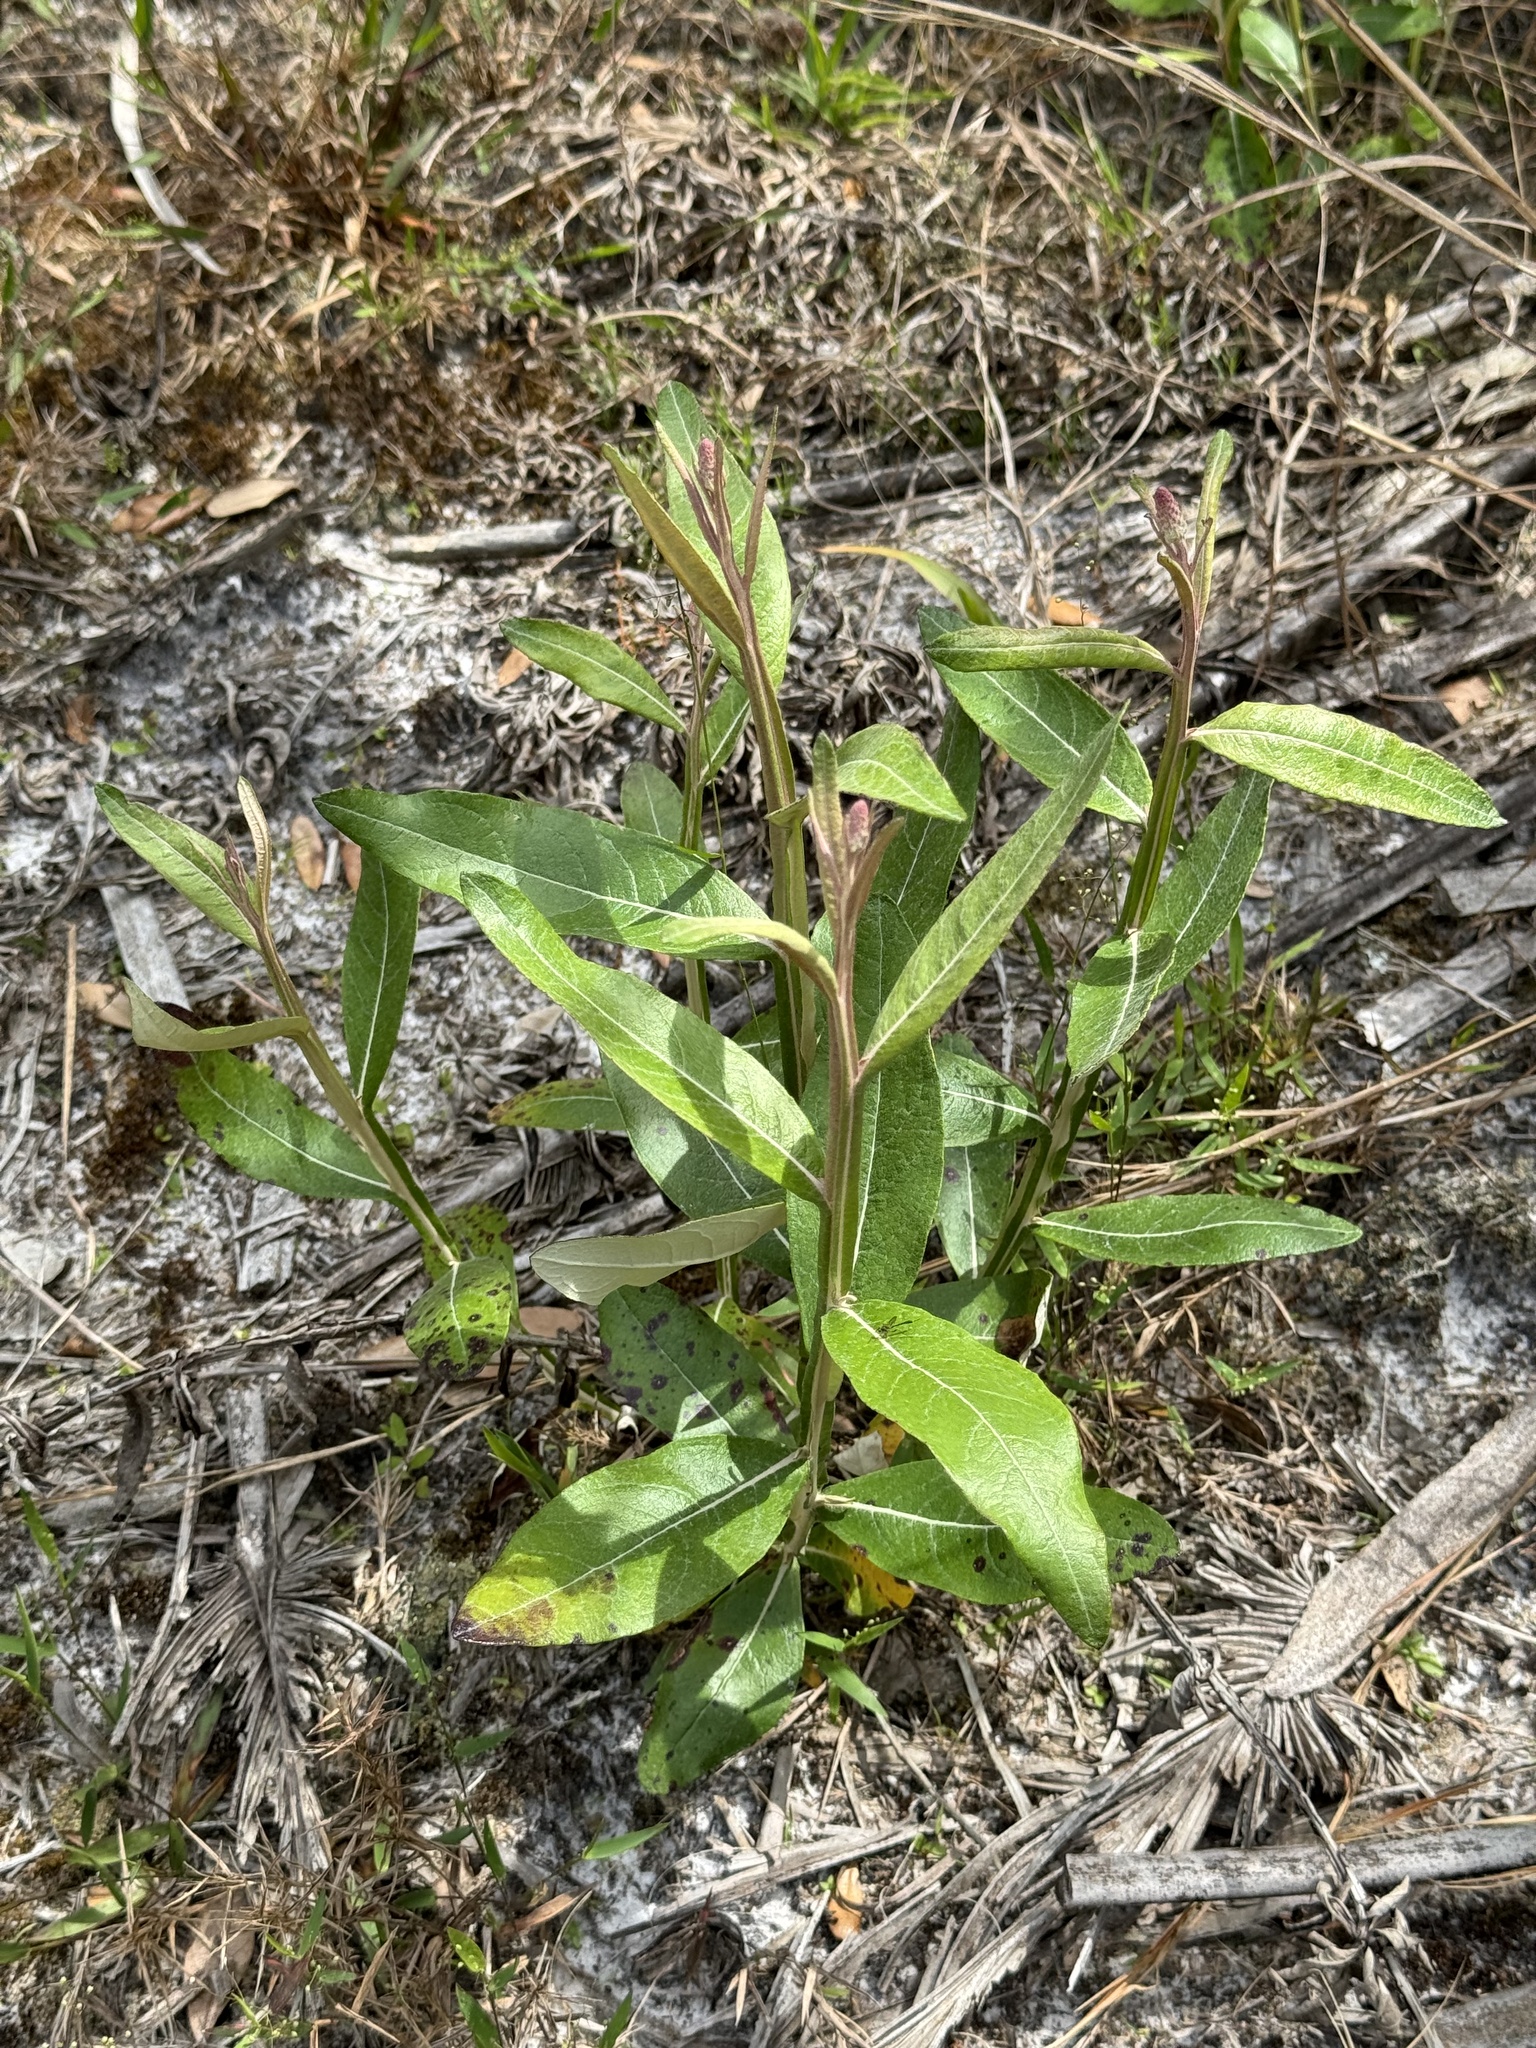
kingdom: Plantae
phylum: Tracheophyta
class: Magnoliopsida
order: Asterales
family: Asteraceae
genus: Pterocaulon
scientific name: Pterocaulon pycnostachyum
